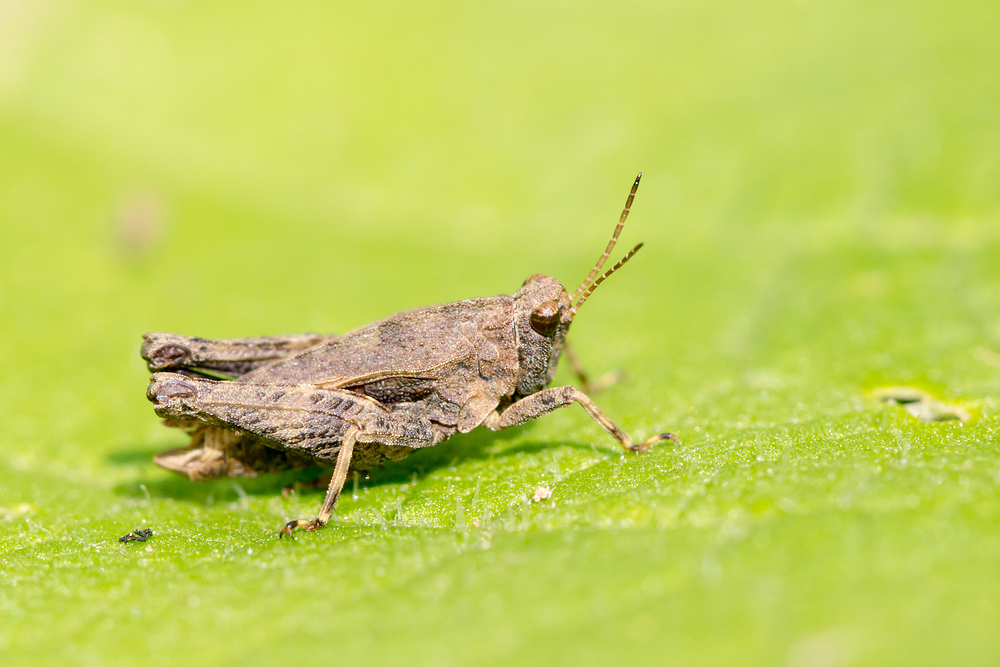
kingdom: Animalia
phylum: Arthropoda
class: Insecta
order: Orthoptera
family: Tetrigidae
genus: Tetrix
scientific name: Tetrix undulata
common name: Common groundhopper
